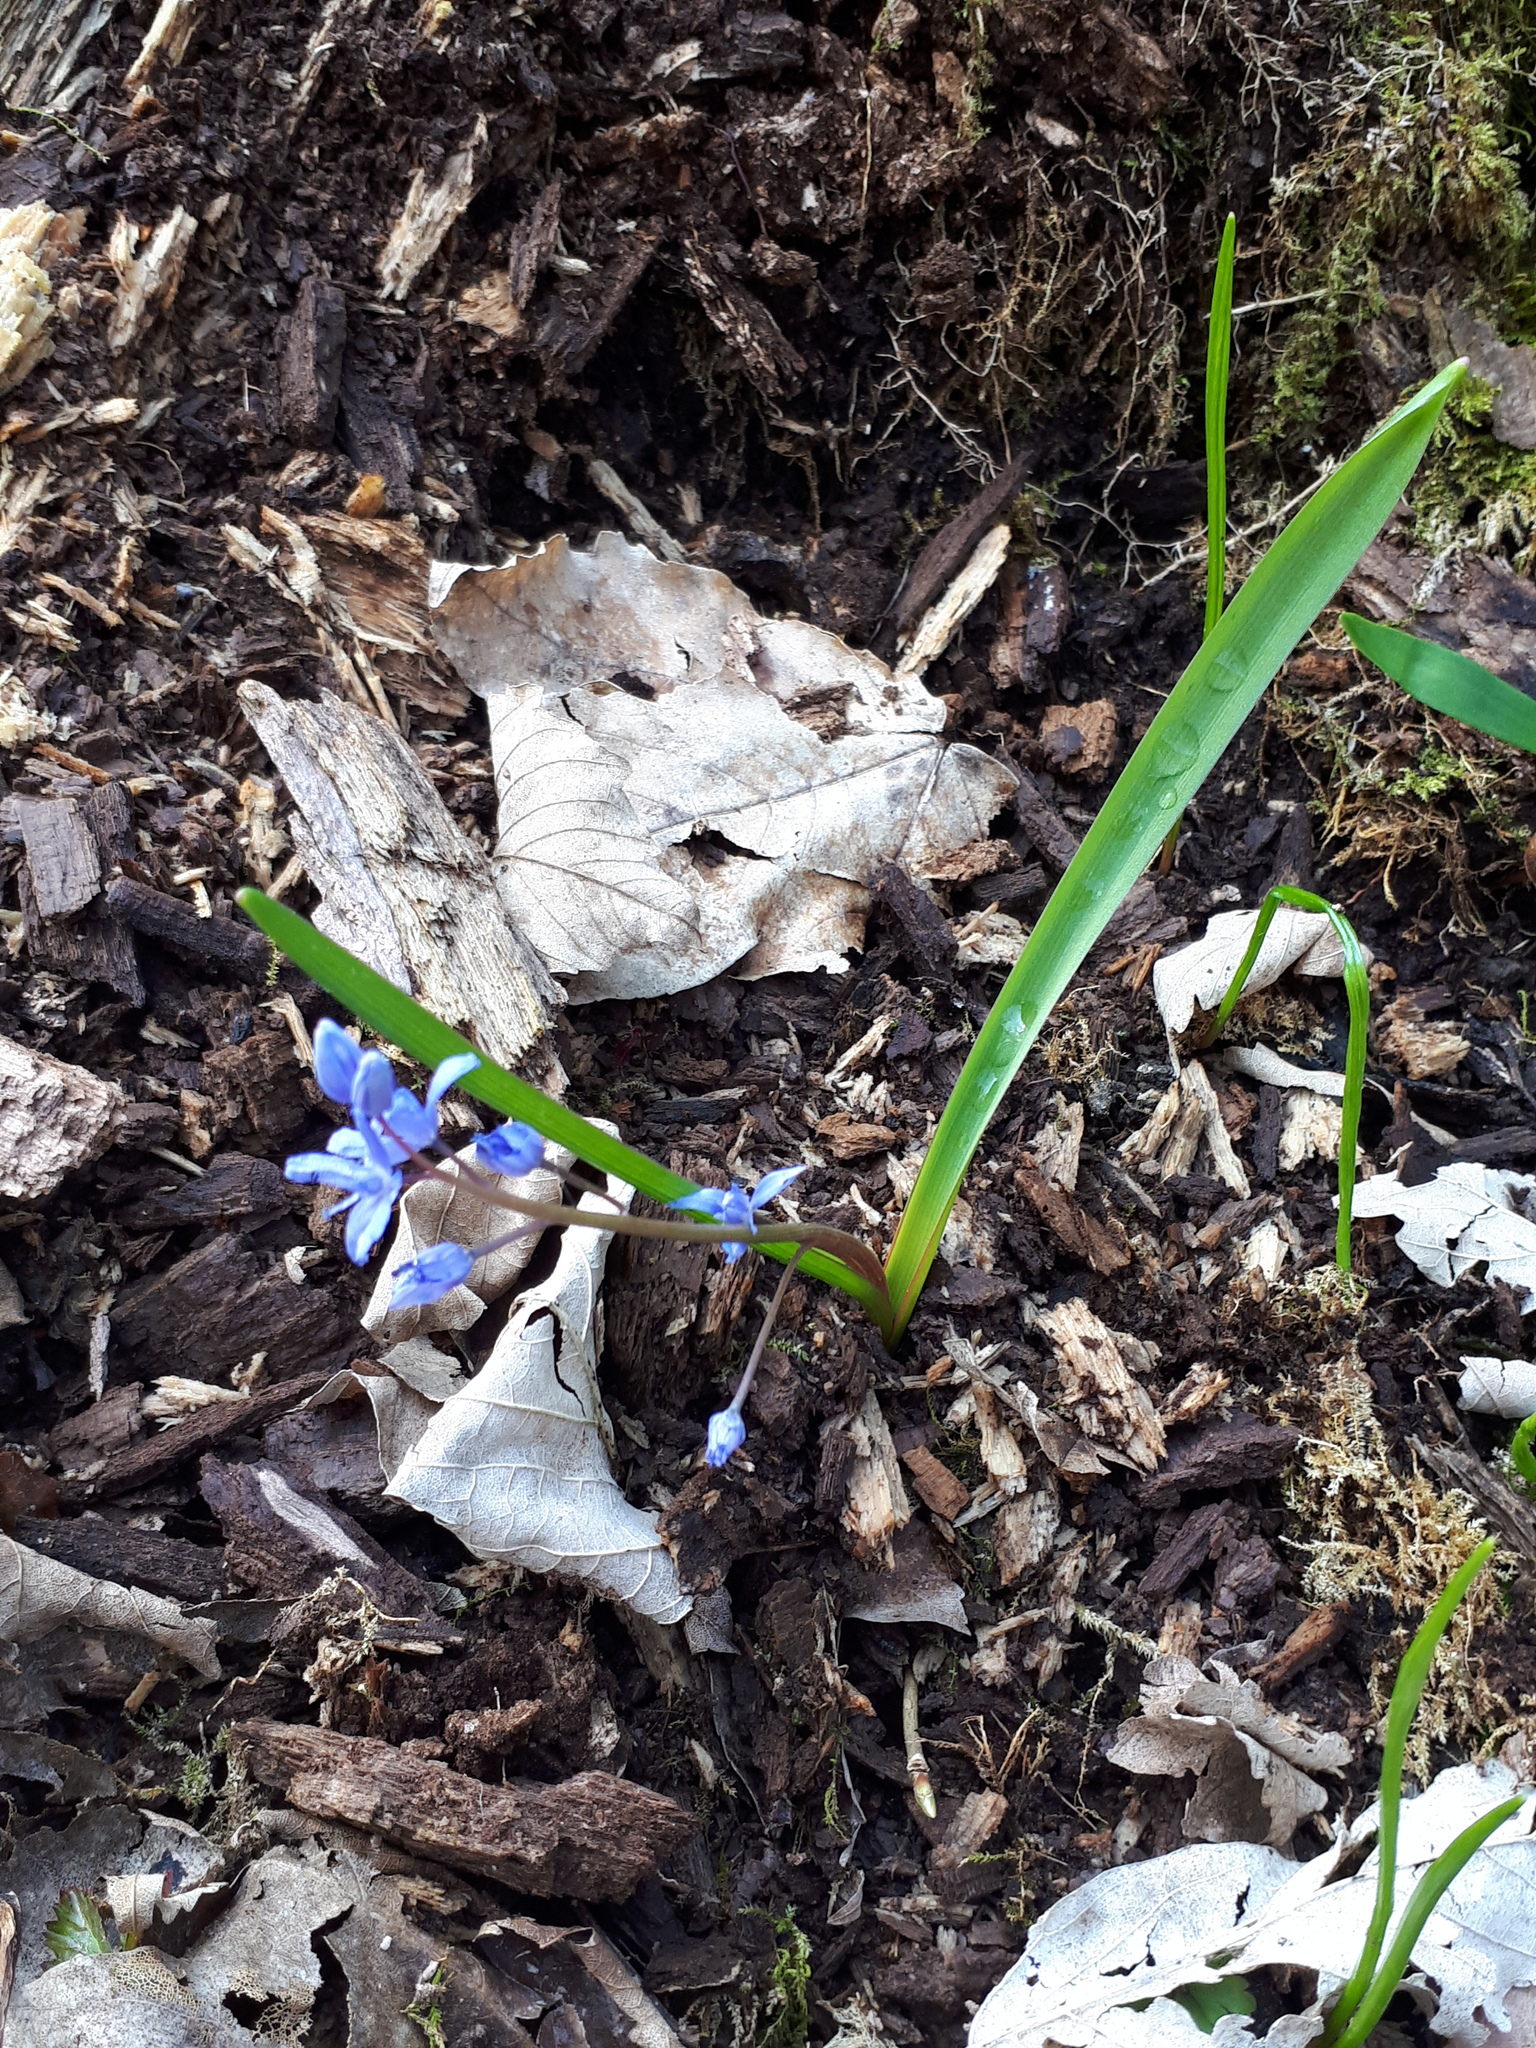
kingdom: Plantae
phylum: Tracheophyta
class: Liliopsida
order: Asparagales
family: Asparagaceae
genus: Scilla
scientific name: Scilla bifolia
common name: Alpine squill
